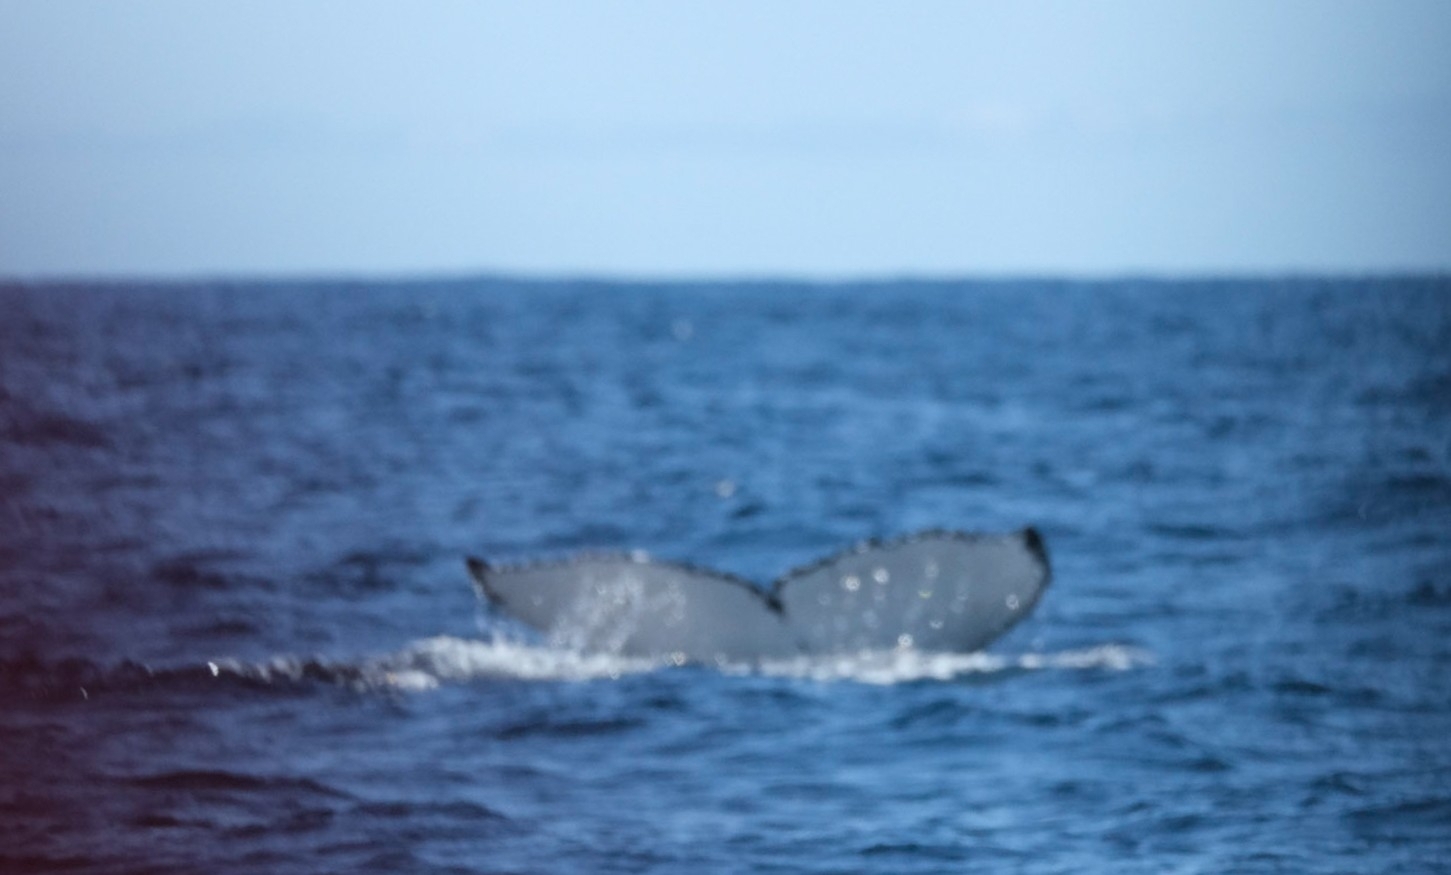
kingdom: Animalia
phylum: Chordata
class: Mammalia
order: Cetacea
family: Balaenopteridae
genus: Megaptera
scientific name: Megaptera novaeangliae
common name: Humpback whale
